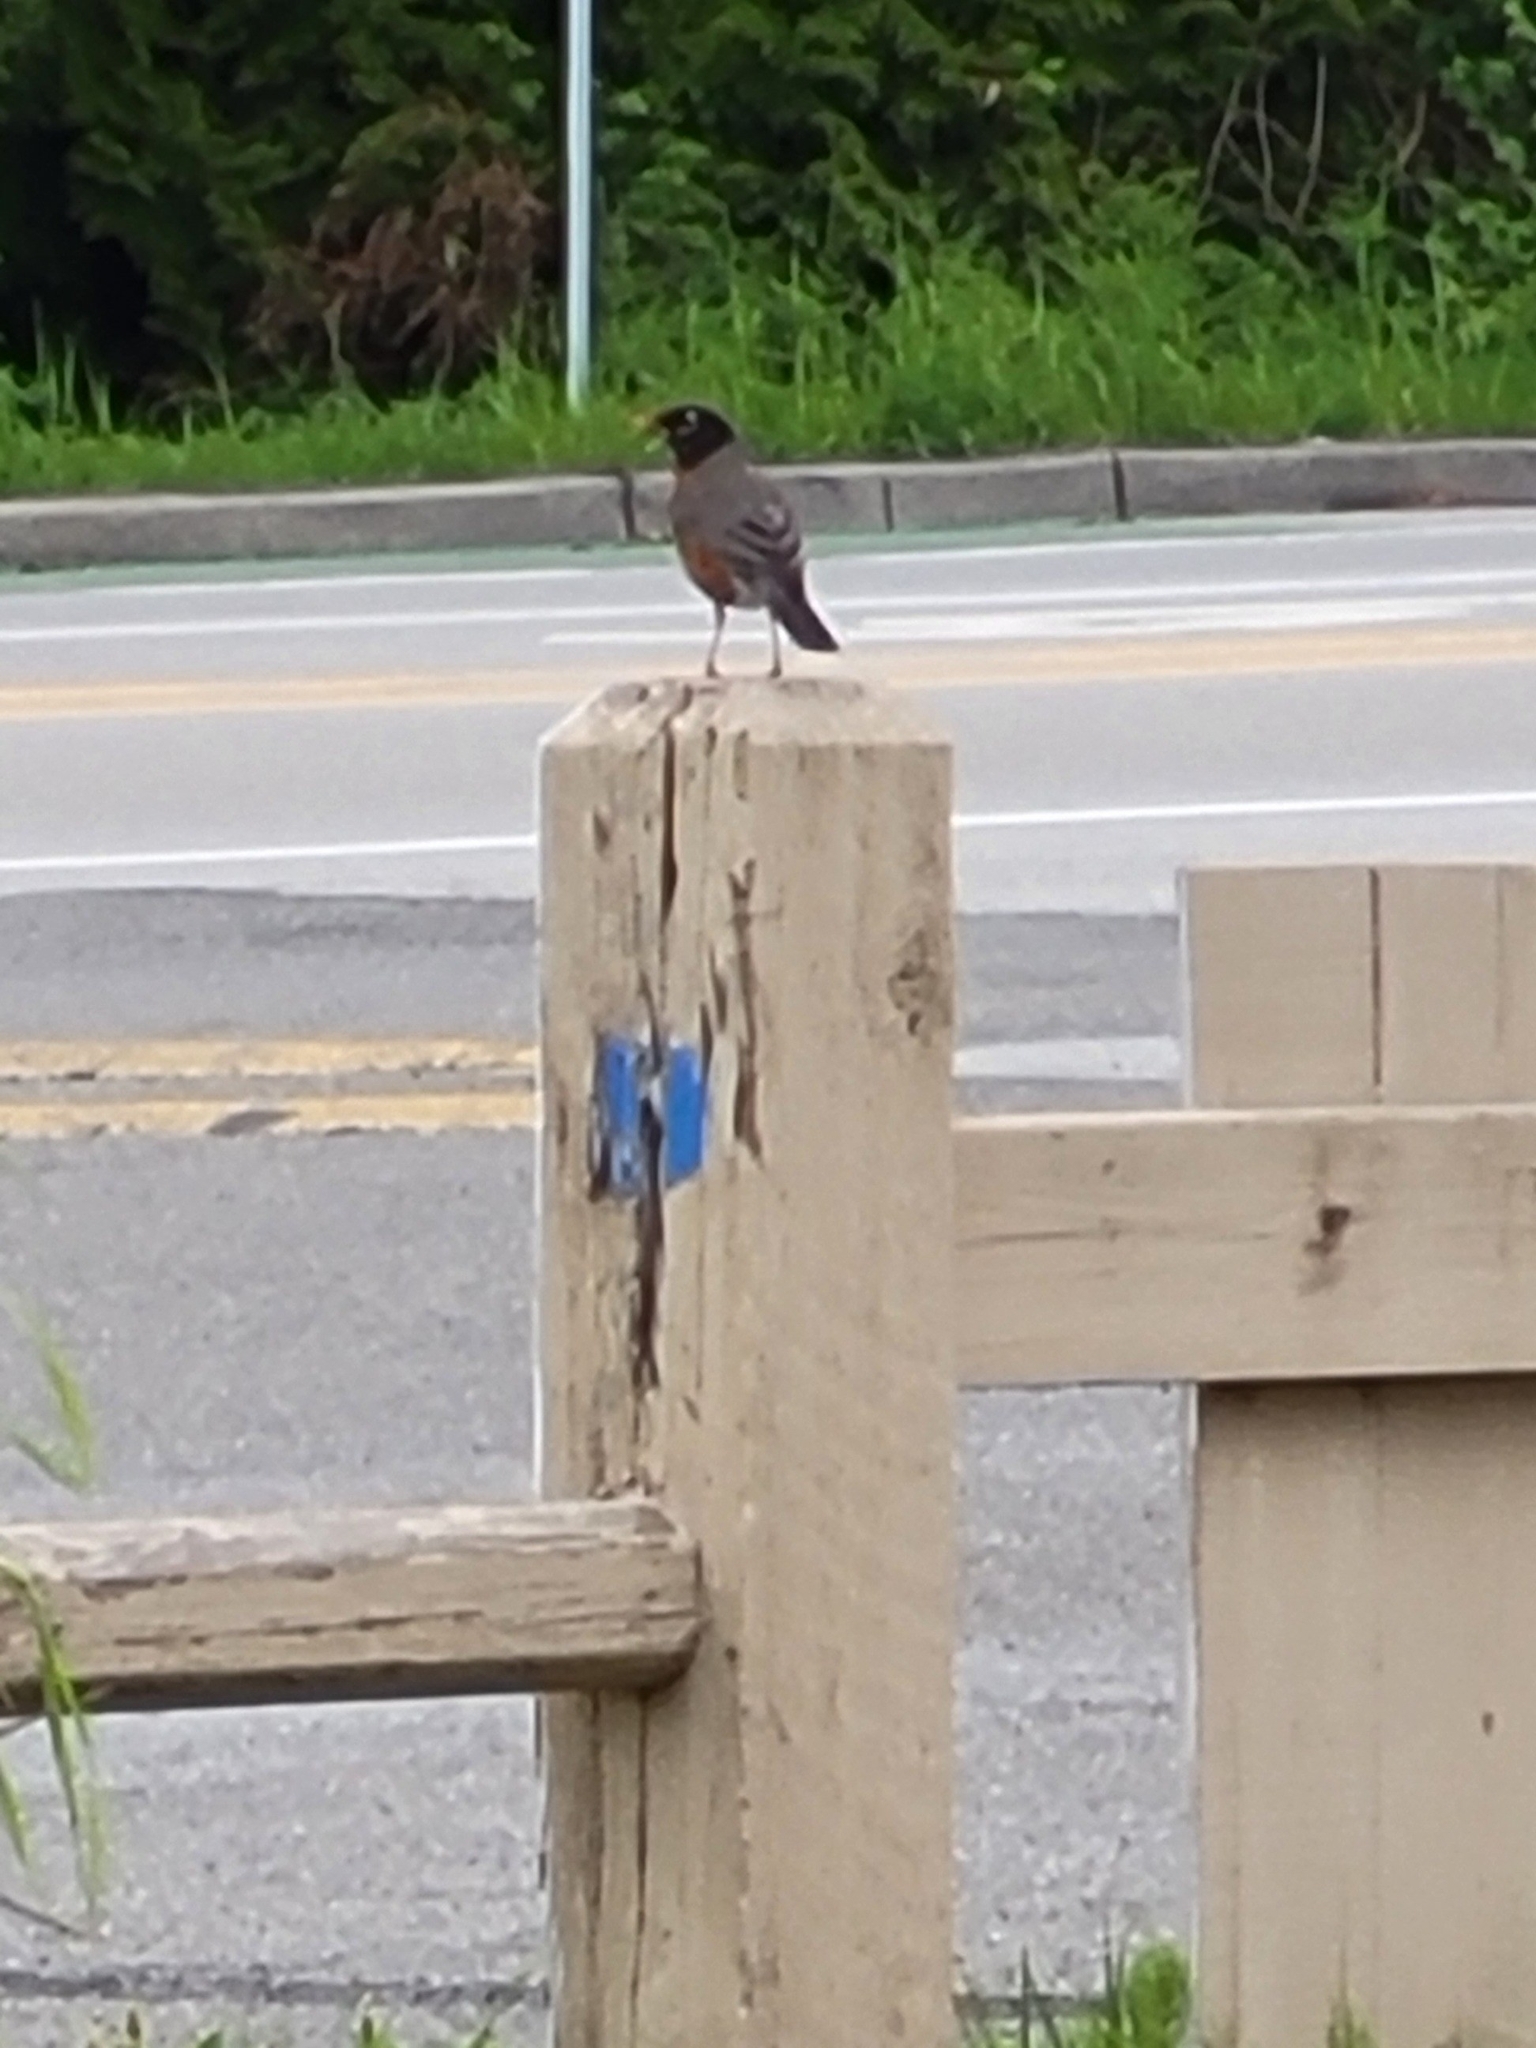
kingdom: Animalia
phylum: Chordata
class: Aves
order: Passeriformes
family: Turdidae
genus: Turdus
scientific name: Turdus migratorius
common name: American robin
